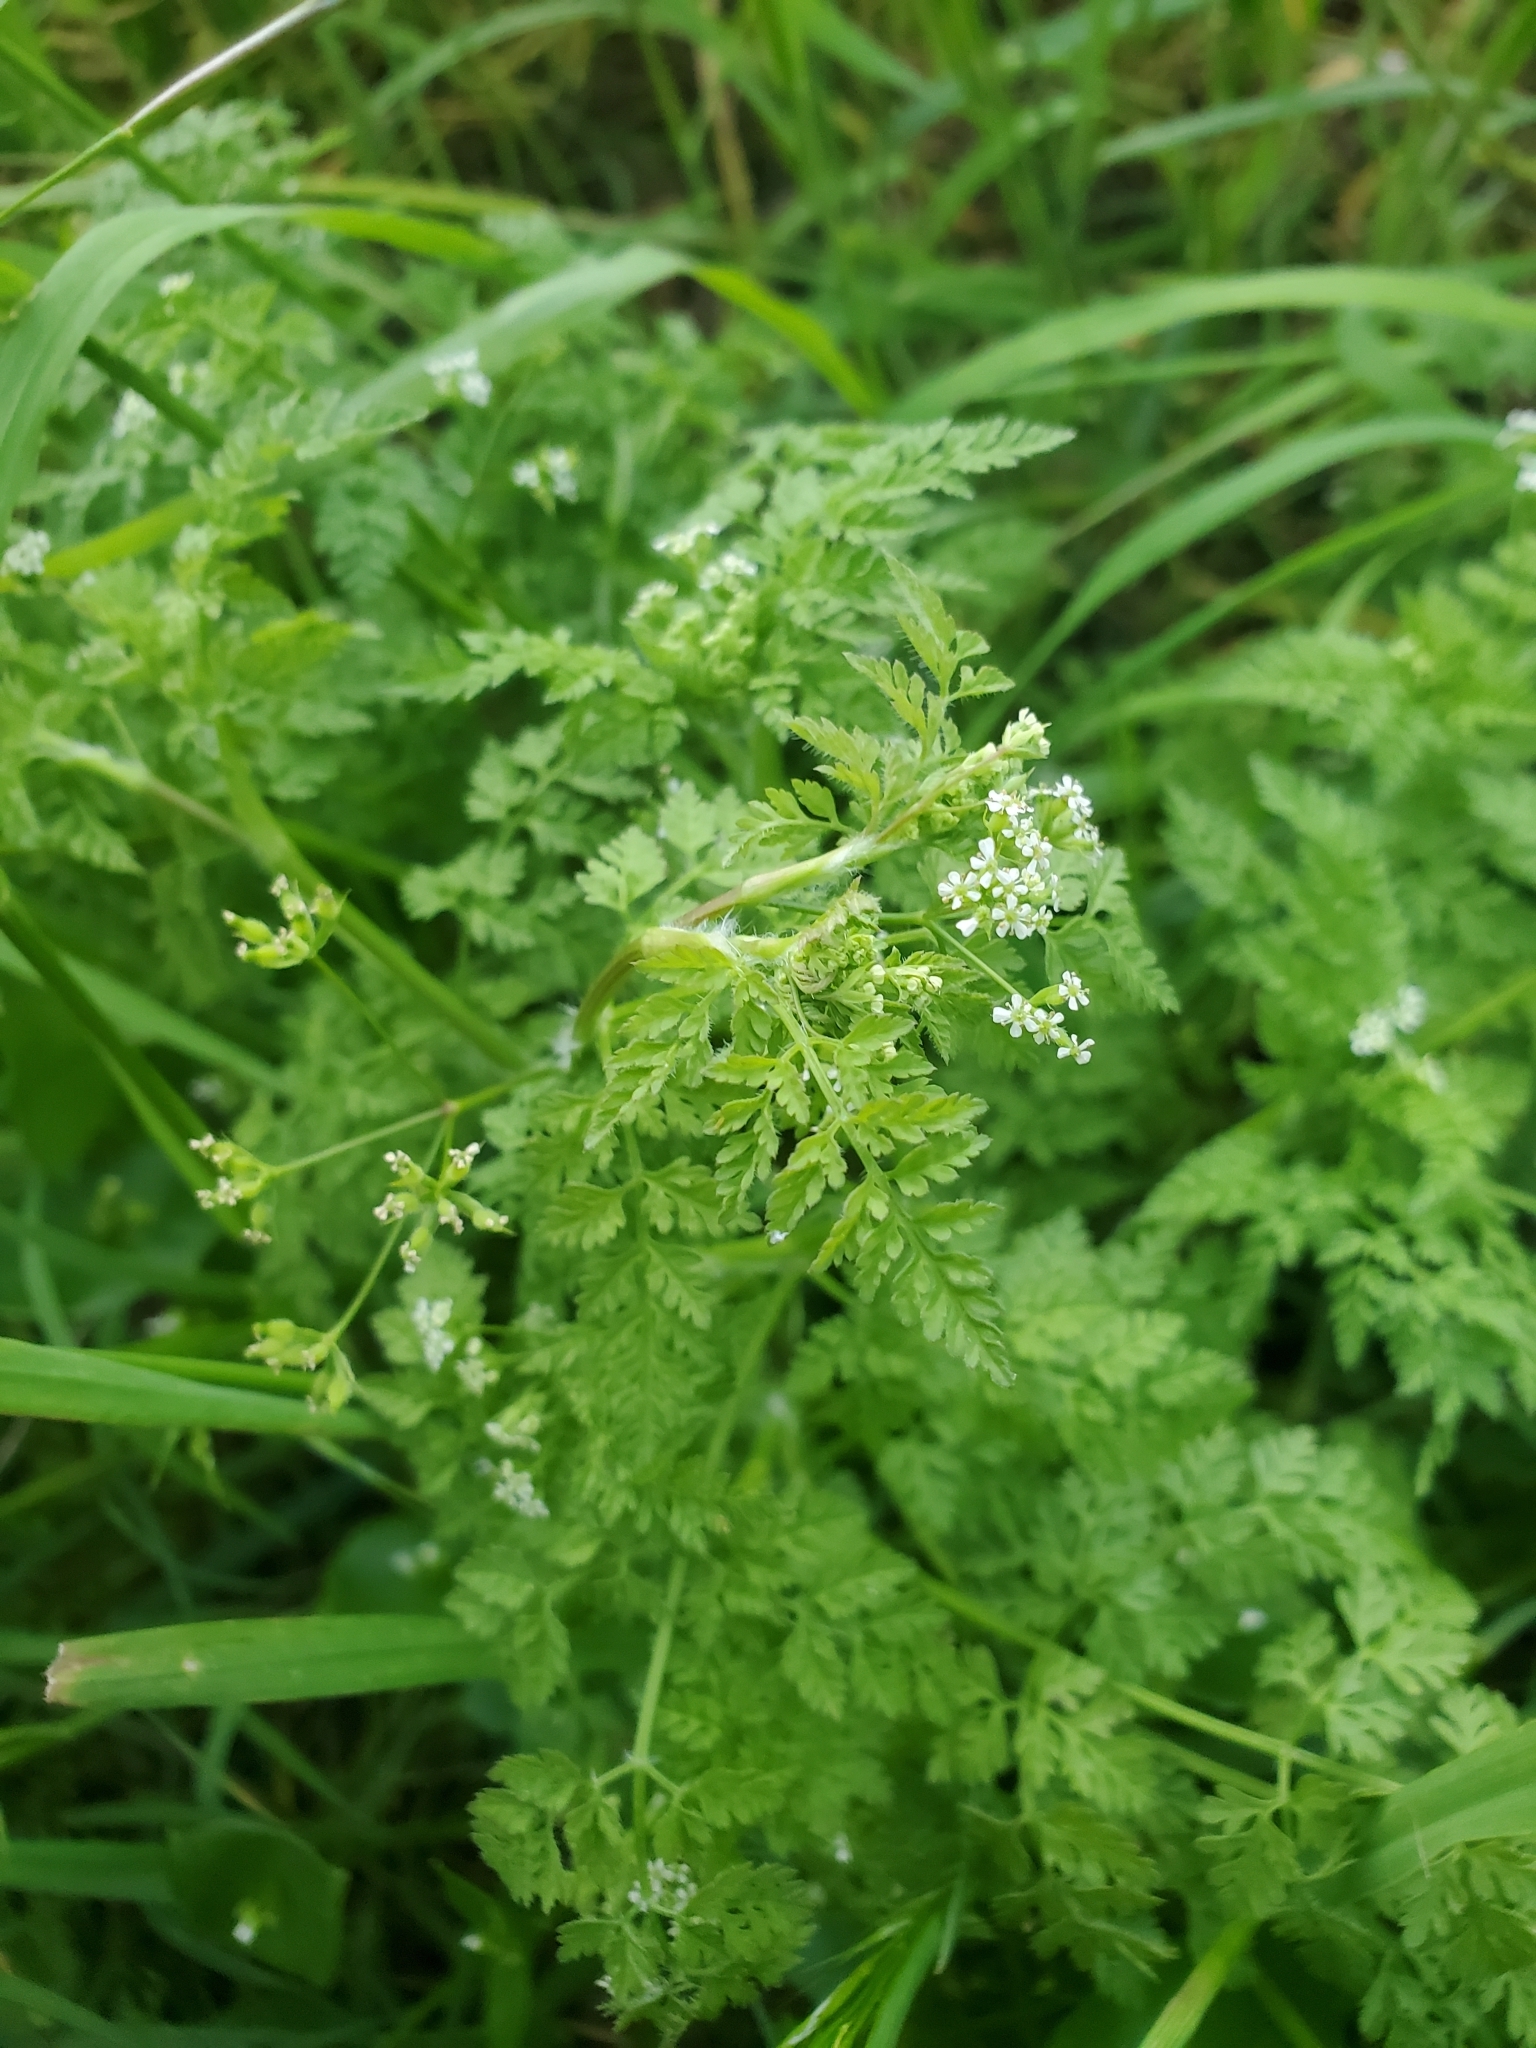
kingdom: Plantae
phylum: Tracheophyta
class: Magnoliopsida
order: Apiales
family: Apiaceae
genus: Anthriscus
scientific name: Anthriscus caucalis
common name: Bur chervil
